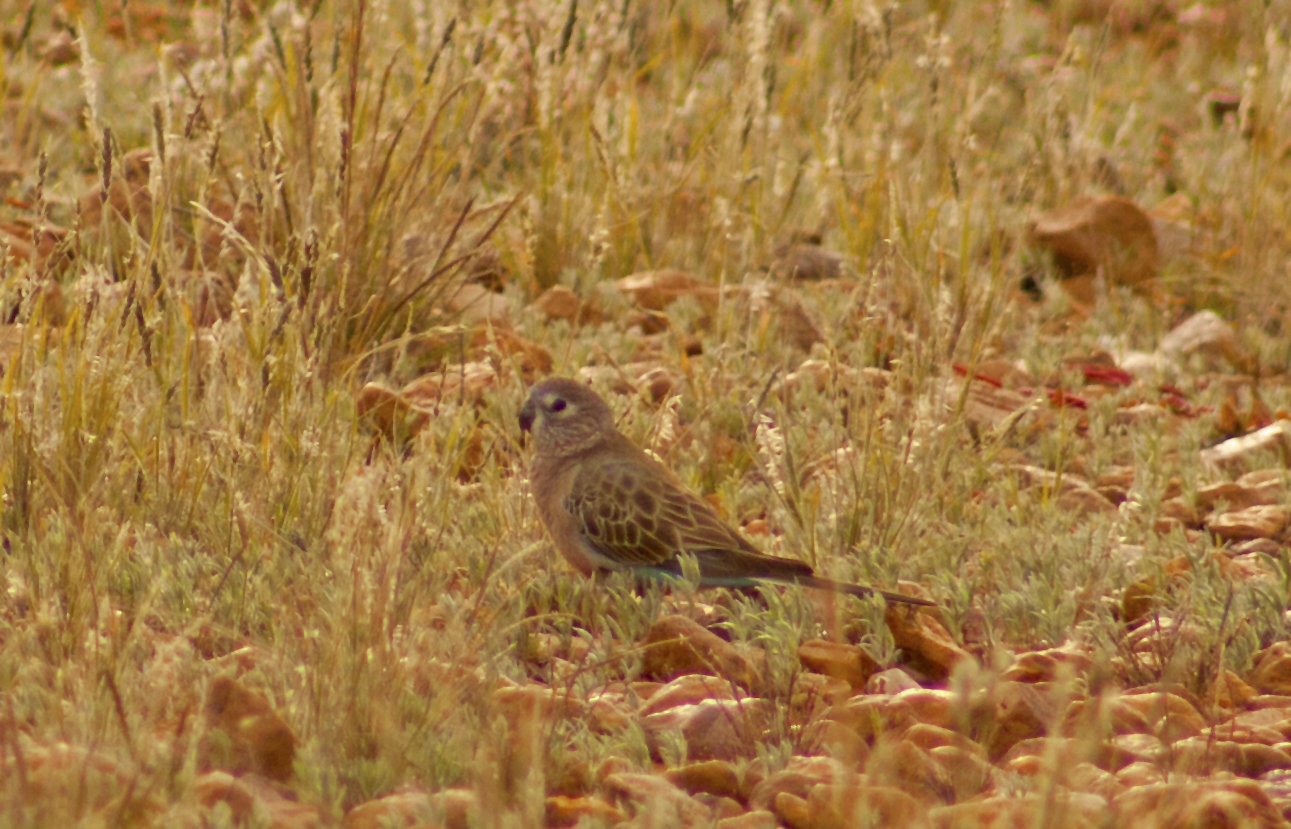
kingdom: Animalia
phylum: Chordata
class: Aves
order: Psittaciformes
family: Psittacidae
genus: Neopsephotus
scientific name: Neopsephotus bourkii
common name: Bourke's parrot
